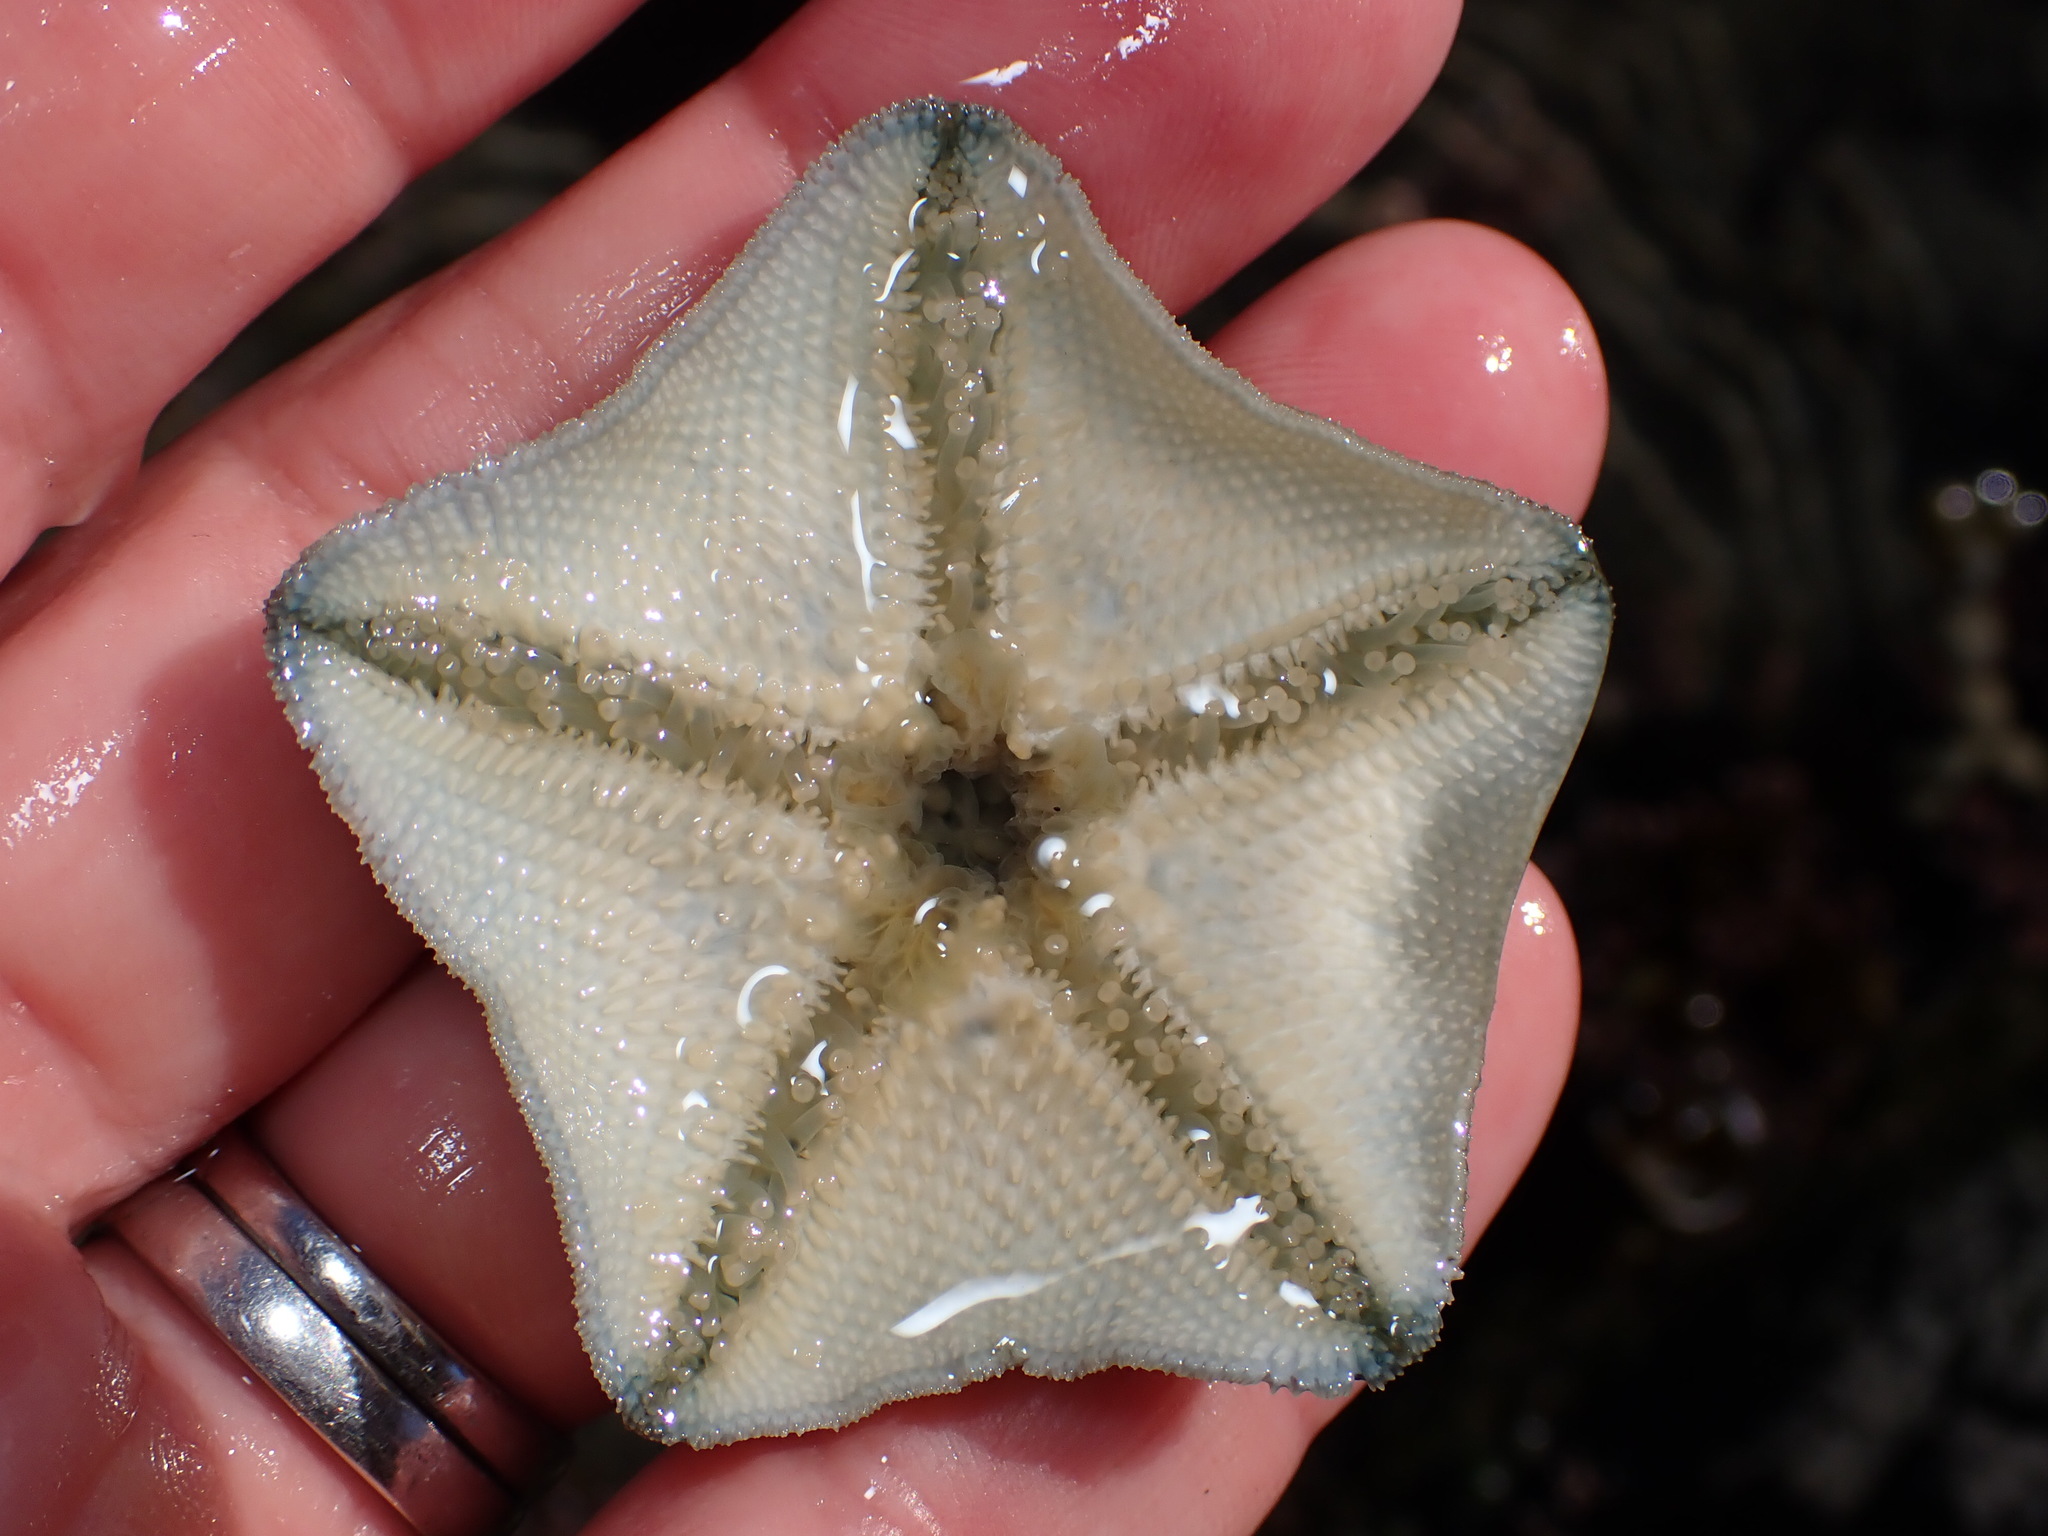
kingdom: Animalia
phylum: Echinodermata
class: Asteroidea
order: Valvatida
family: Asterinidae
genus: Patiriella
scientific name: Patiriella regularis
